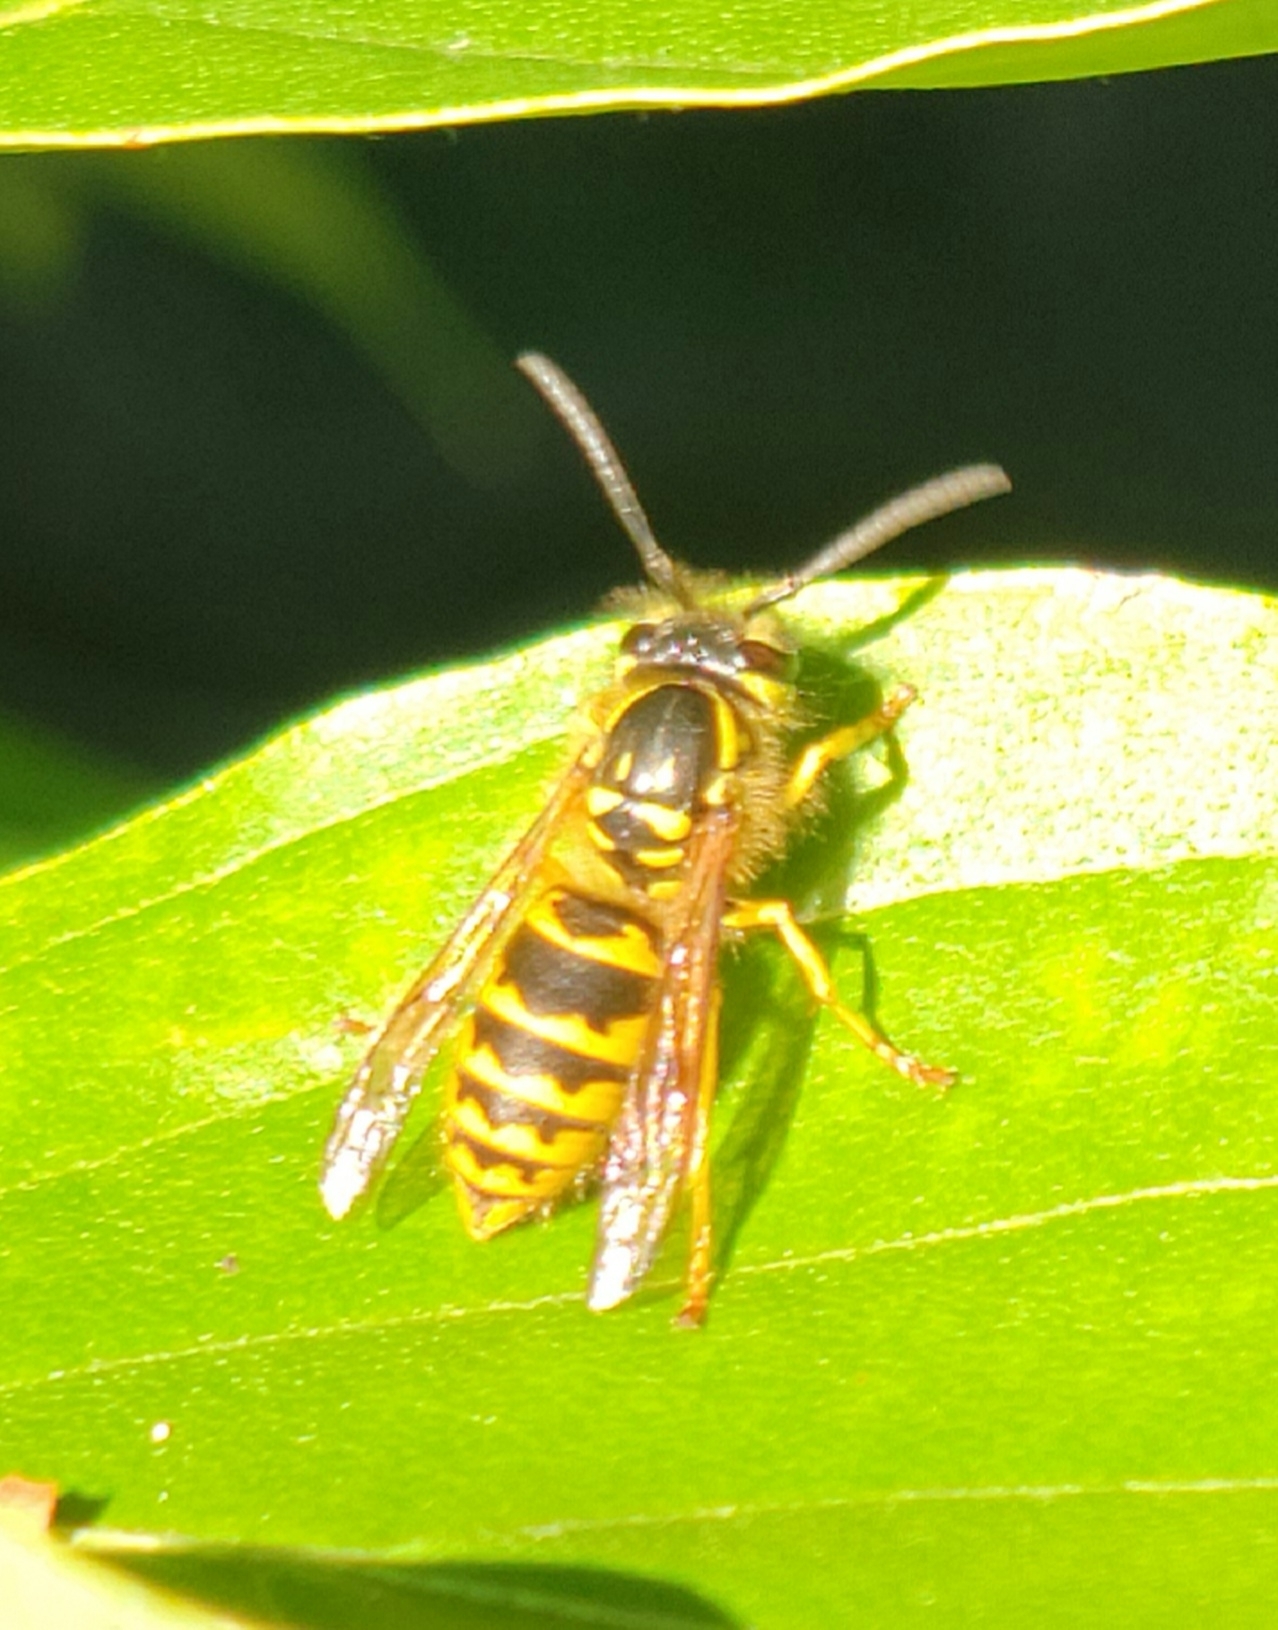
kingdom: Animalia
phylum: Arthropoda
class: Insecta
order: Hymenoptera
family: Vespidae
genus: Vespula
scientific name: Vespula flavopilosa
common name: Downy yellowjacket
